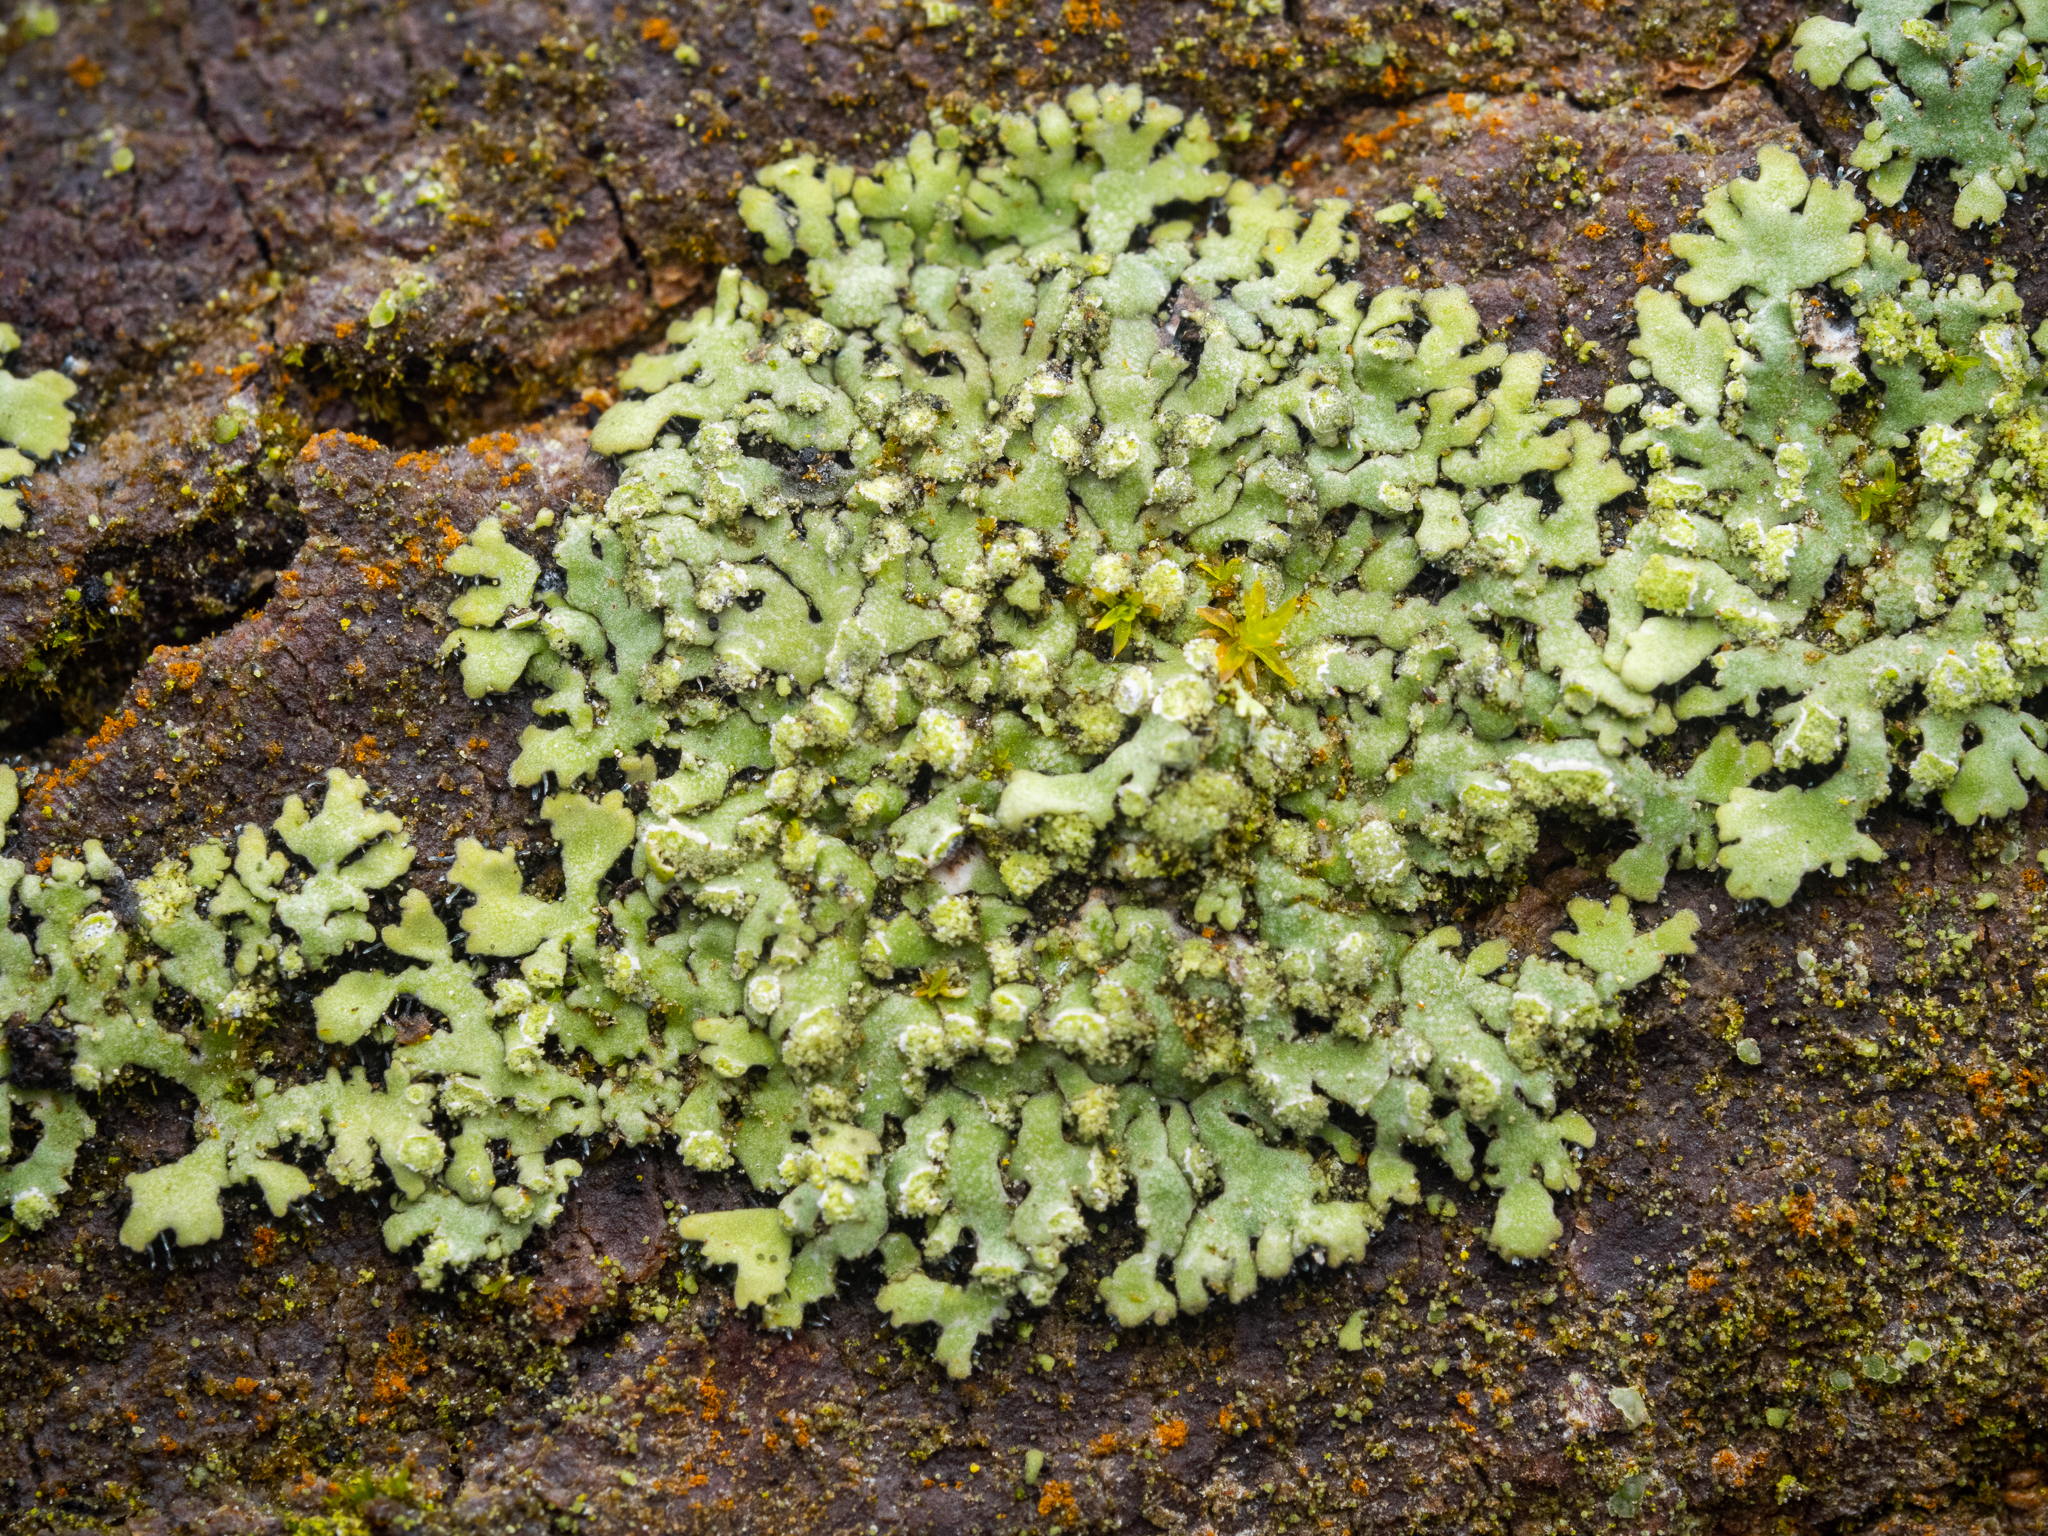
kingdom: Fungi
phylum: Ascomycota
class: Lecanoromycetes
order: Caliciales
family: Physciaceae
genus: Phaeophyscia
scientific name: Phaeophyscia orbicularis
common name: Mealy shadow lichen
